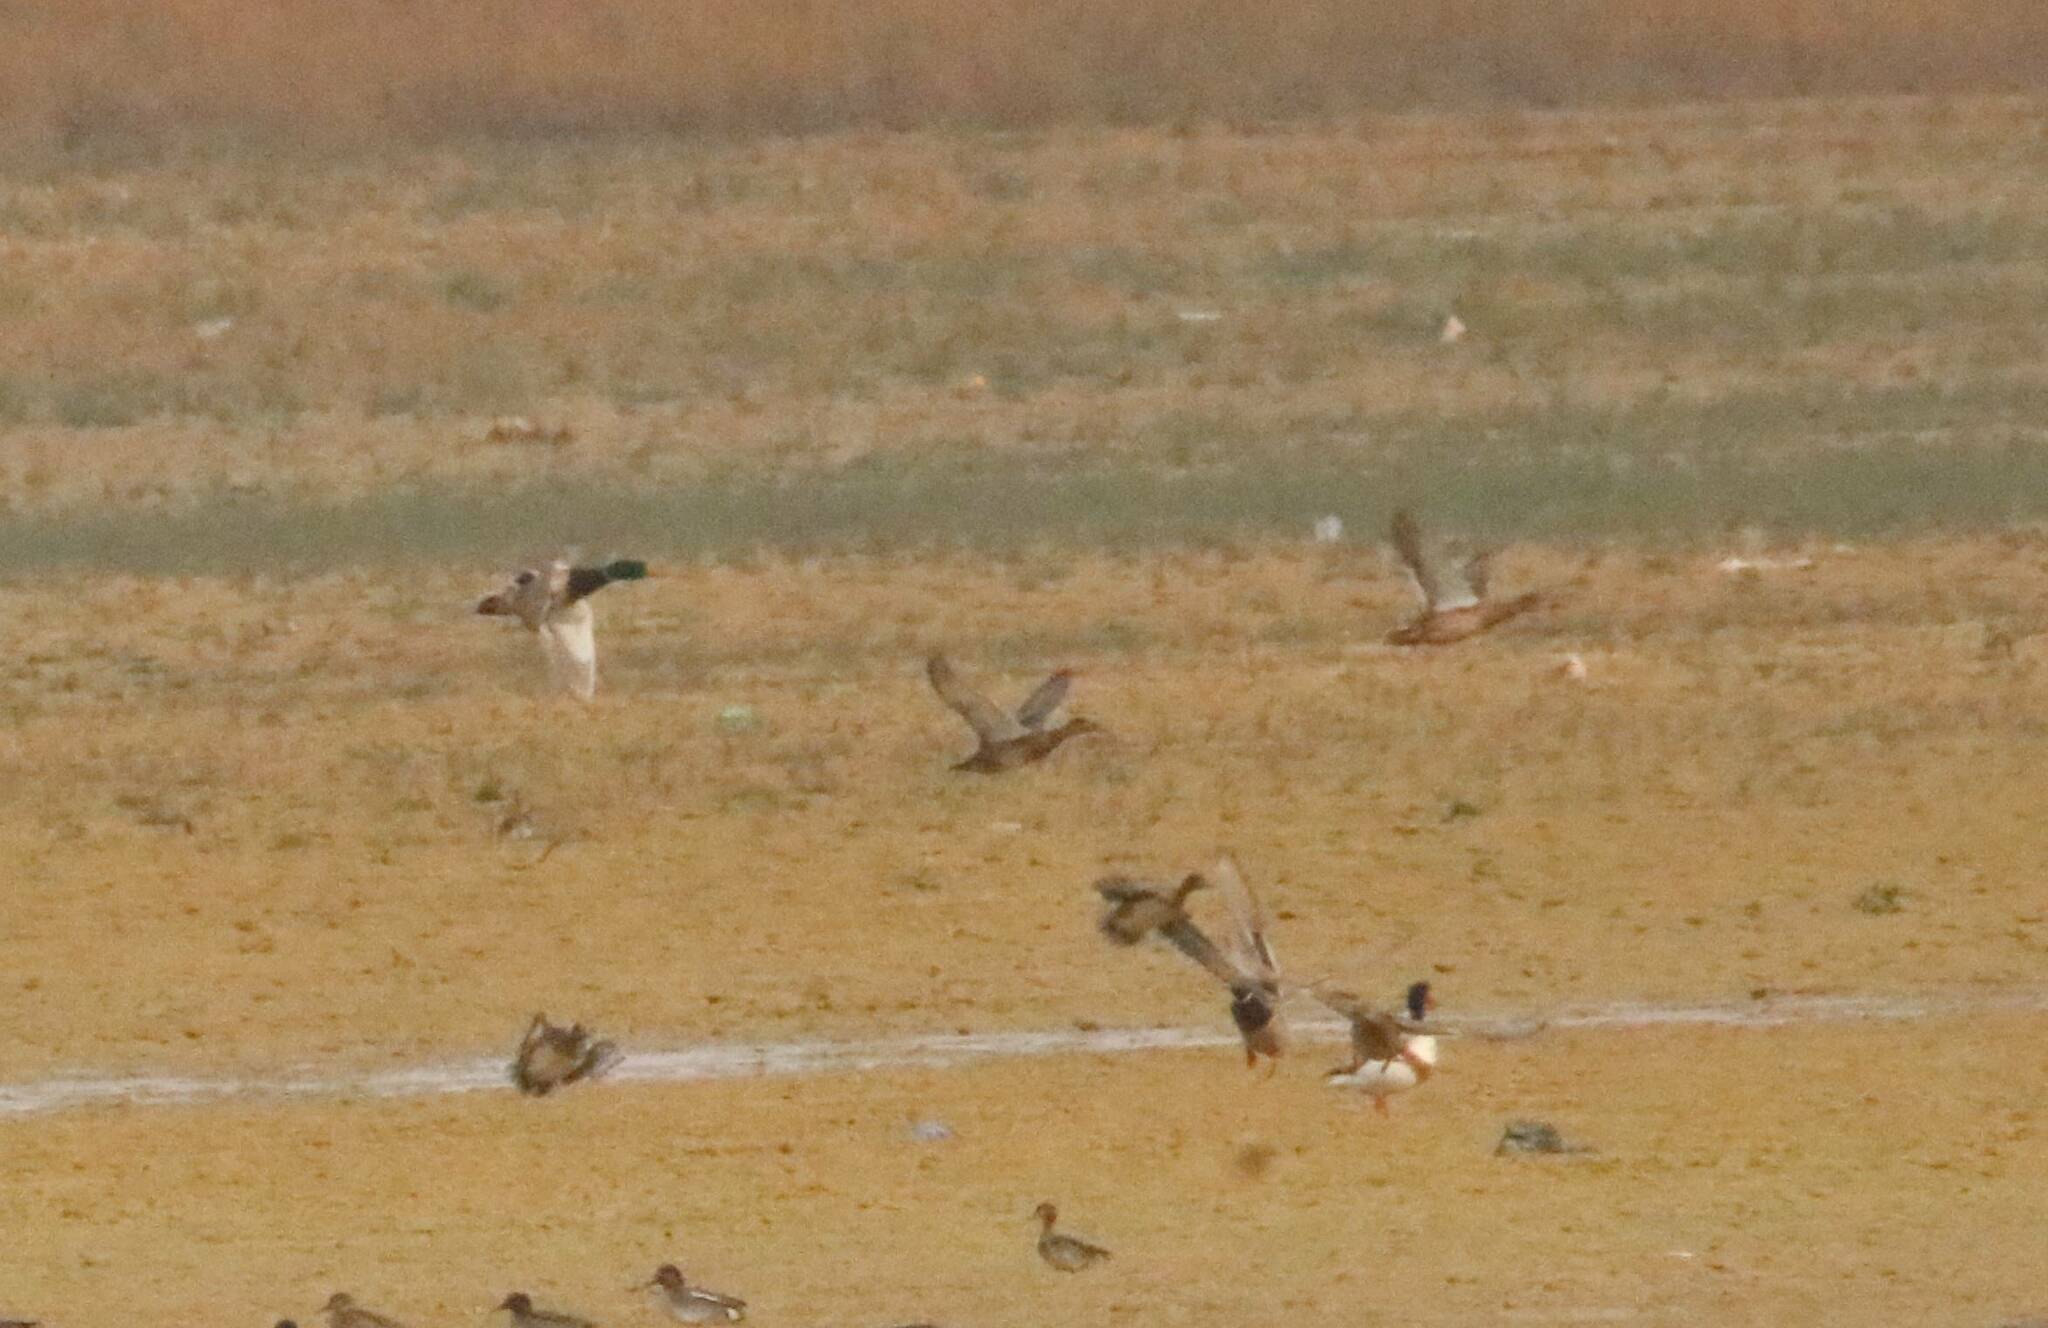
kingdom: Animalia
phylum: Chordata
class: Aves
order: Anseriformes
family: Anatidae
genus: Anas
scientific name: Anas platyrhynchos
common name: Mallard
